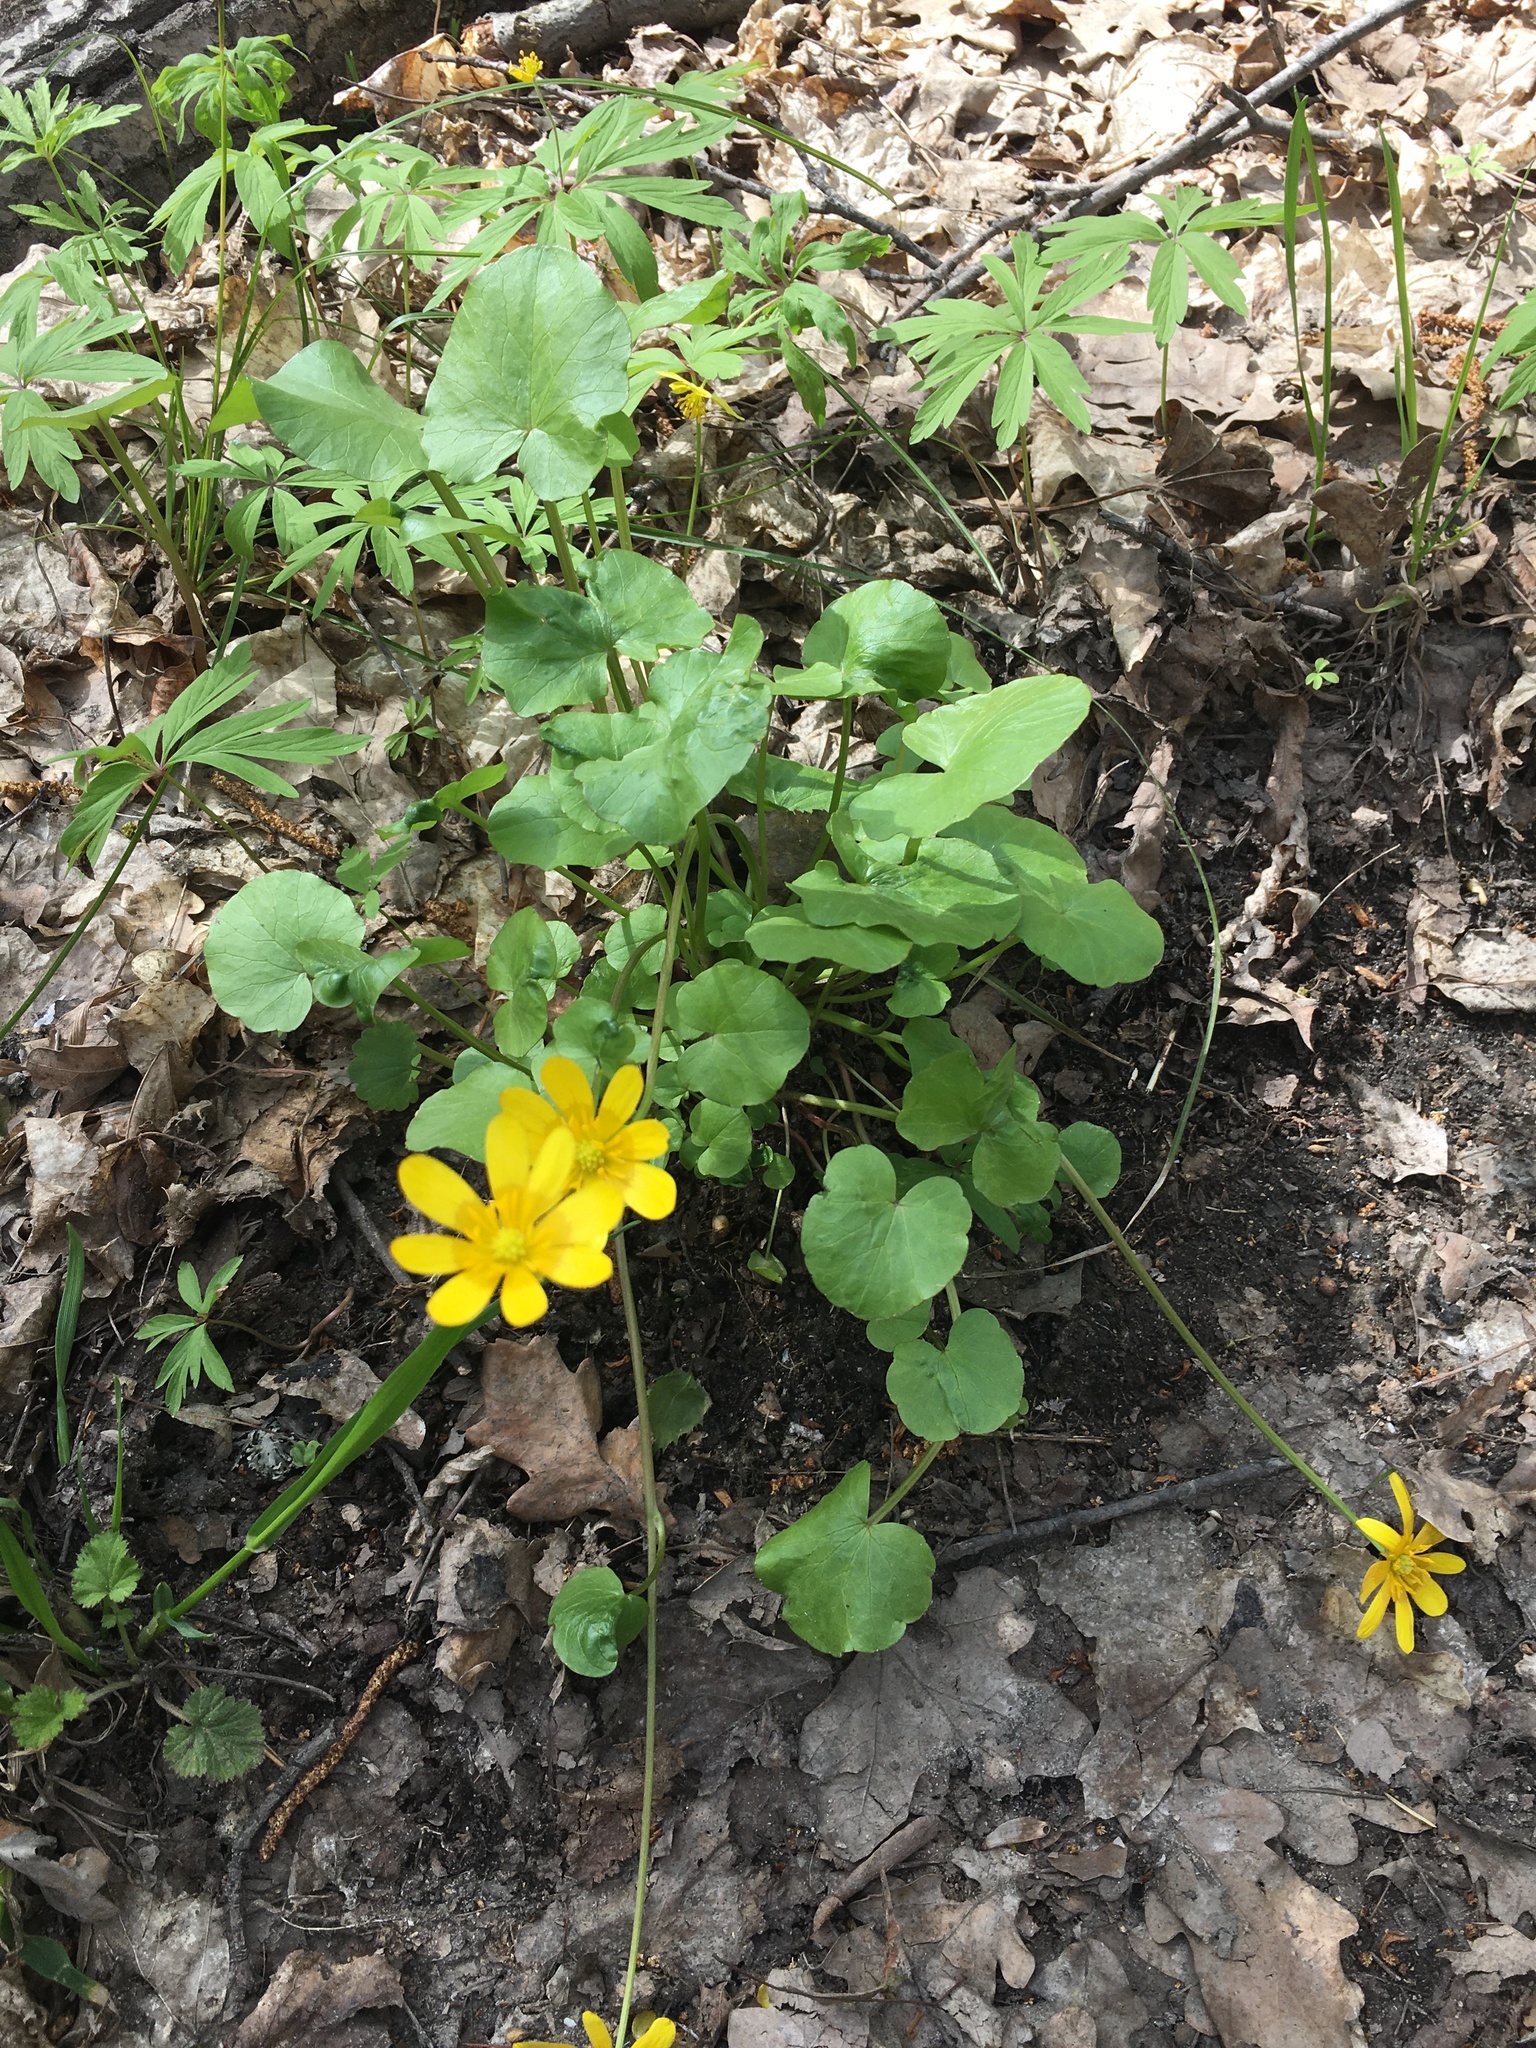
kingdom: Plantae
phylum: Tracheophyta
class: Magnoliopsida
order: Ranunculales
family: Ranunculaceae
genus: Ficaria
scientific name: Ficaria verna
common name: Lesser celandine
